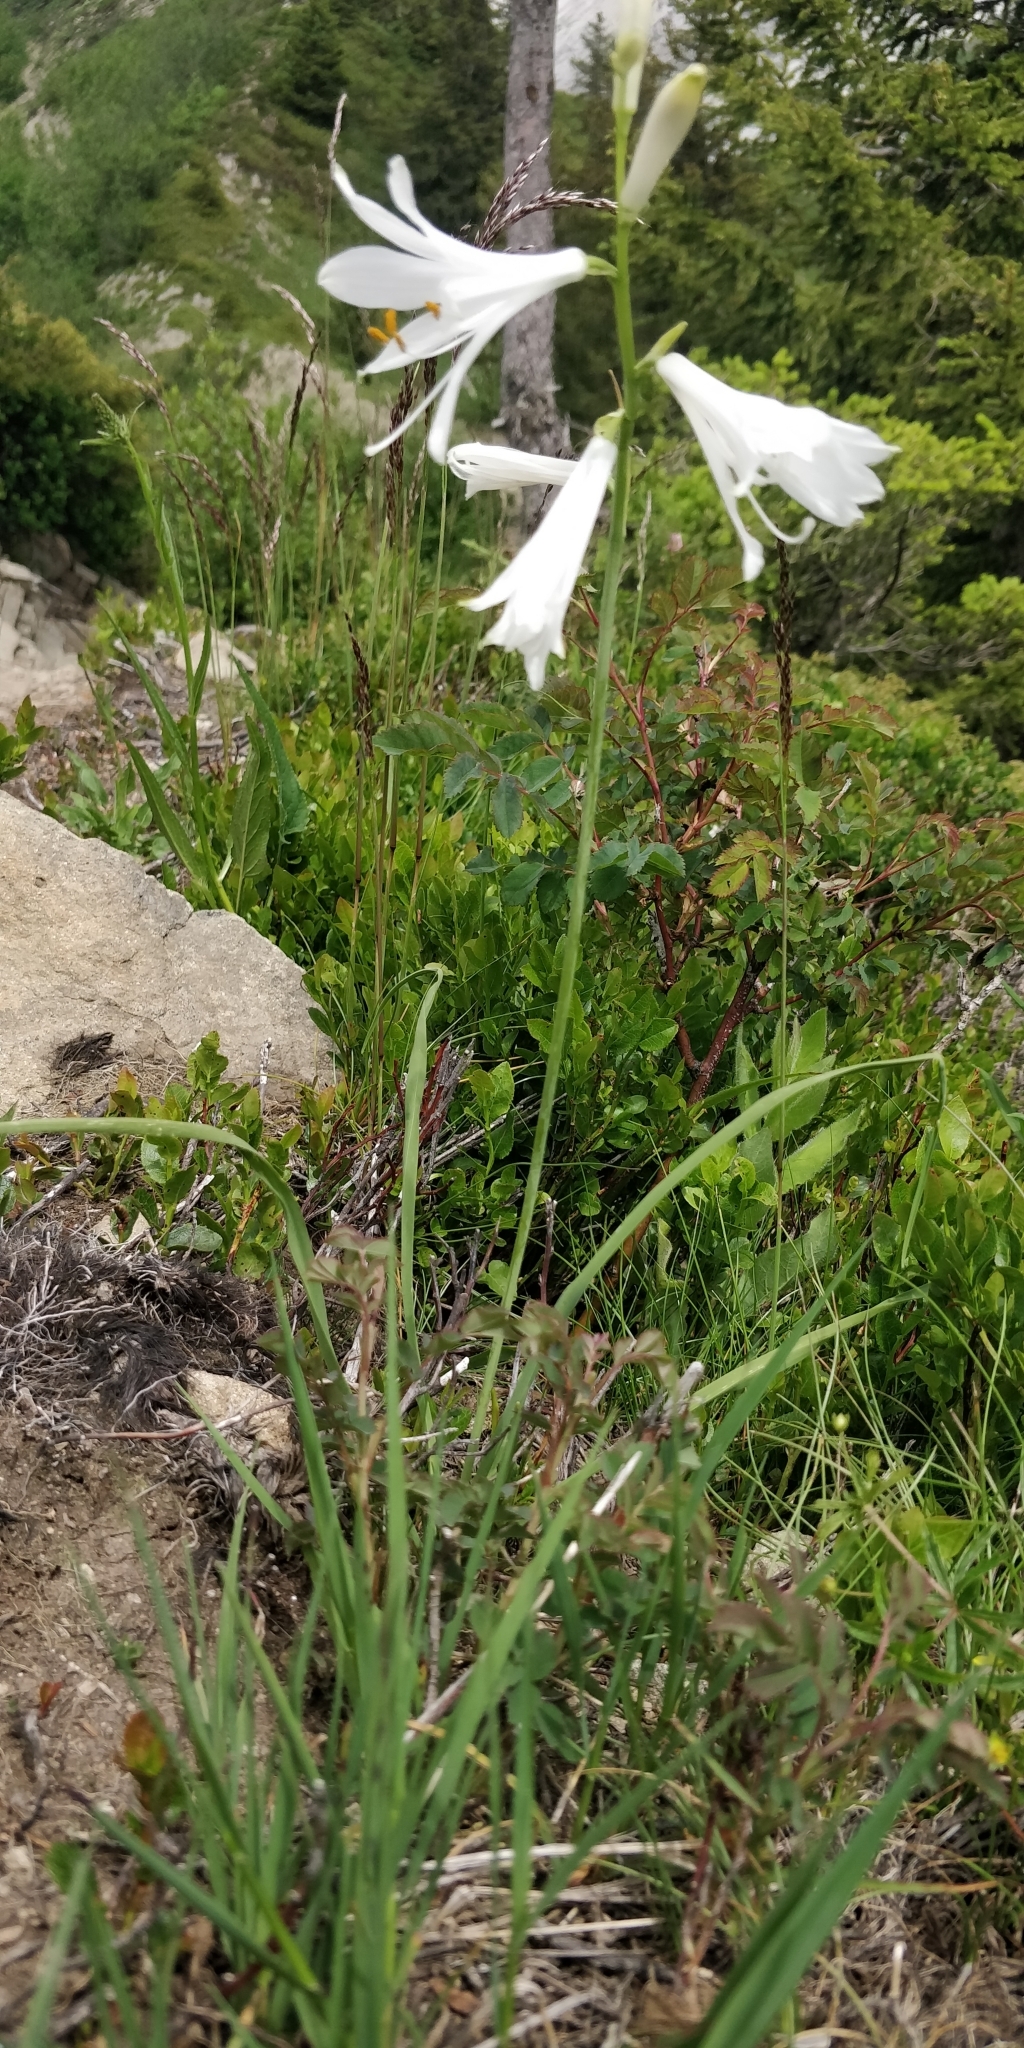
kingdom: Plantae
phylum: Tracheophyta
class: Liliopsida
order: Asparagales
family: Asparagaceae
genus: Paradisea
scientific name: Paradisea liliastrum
